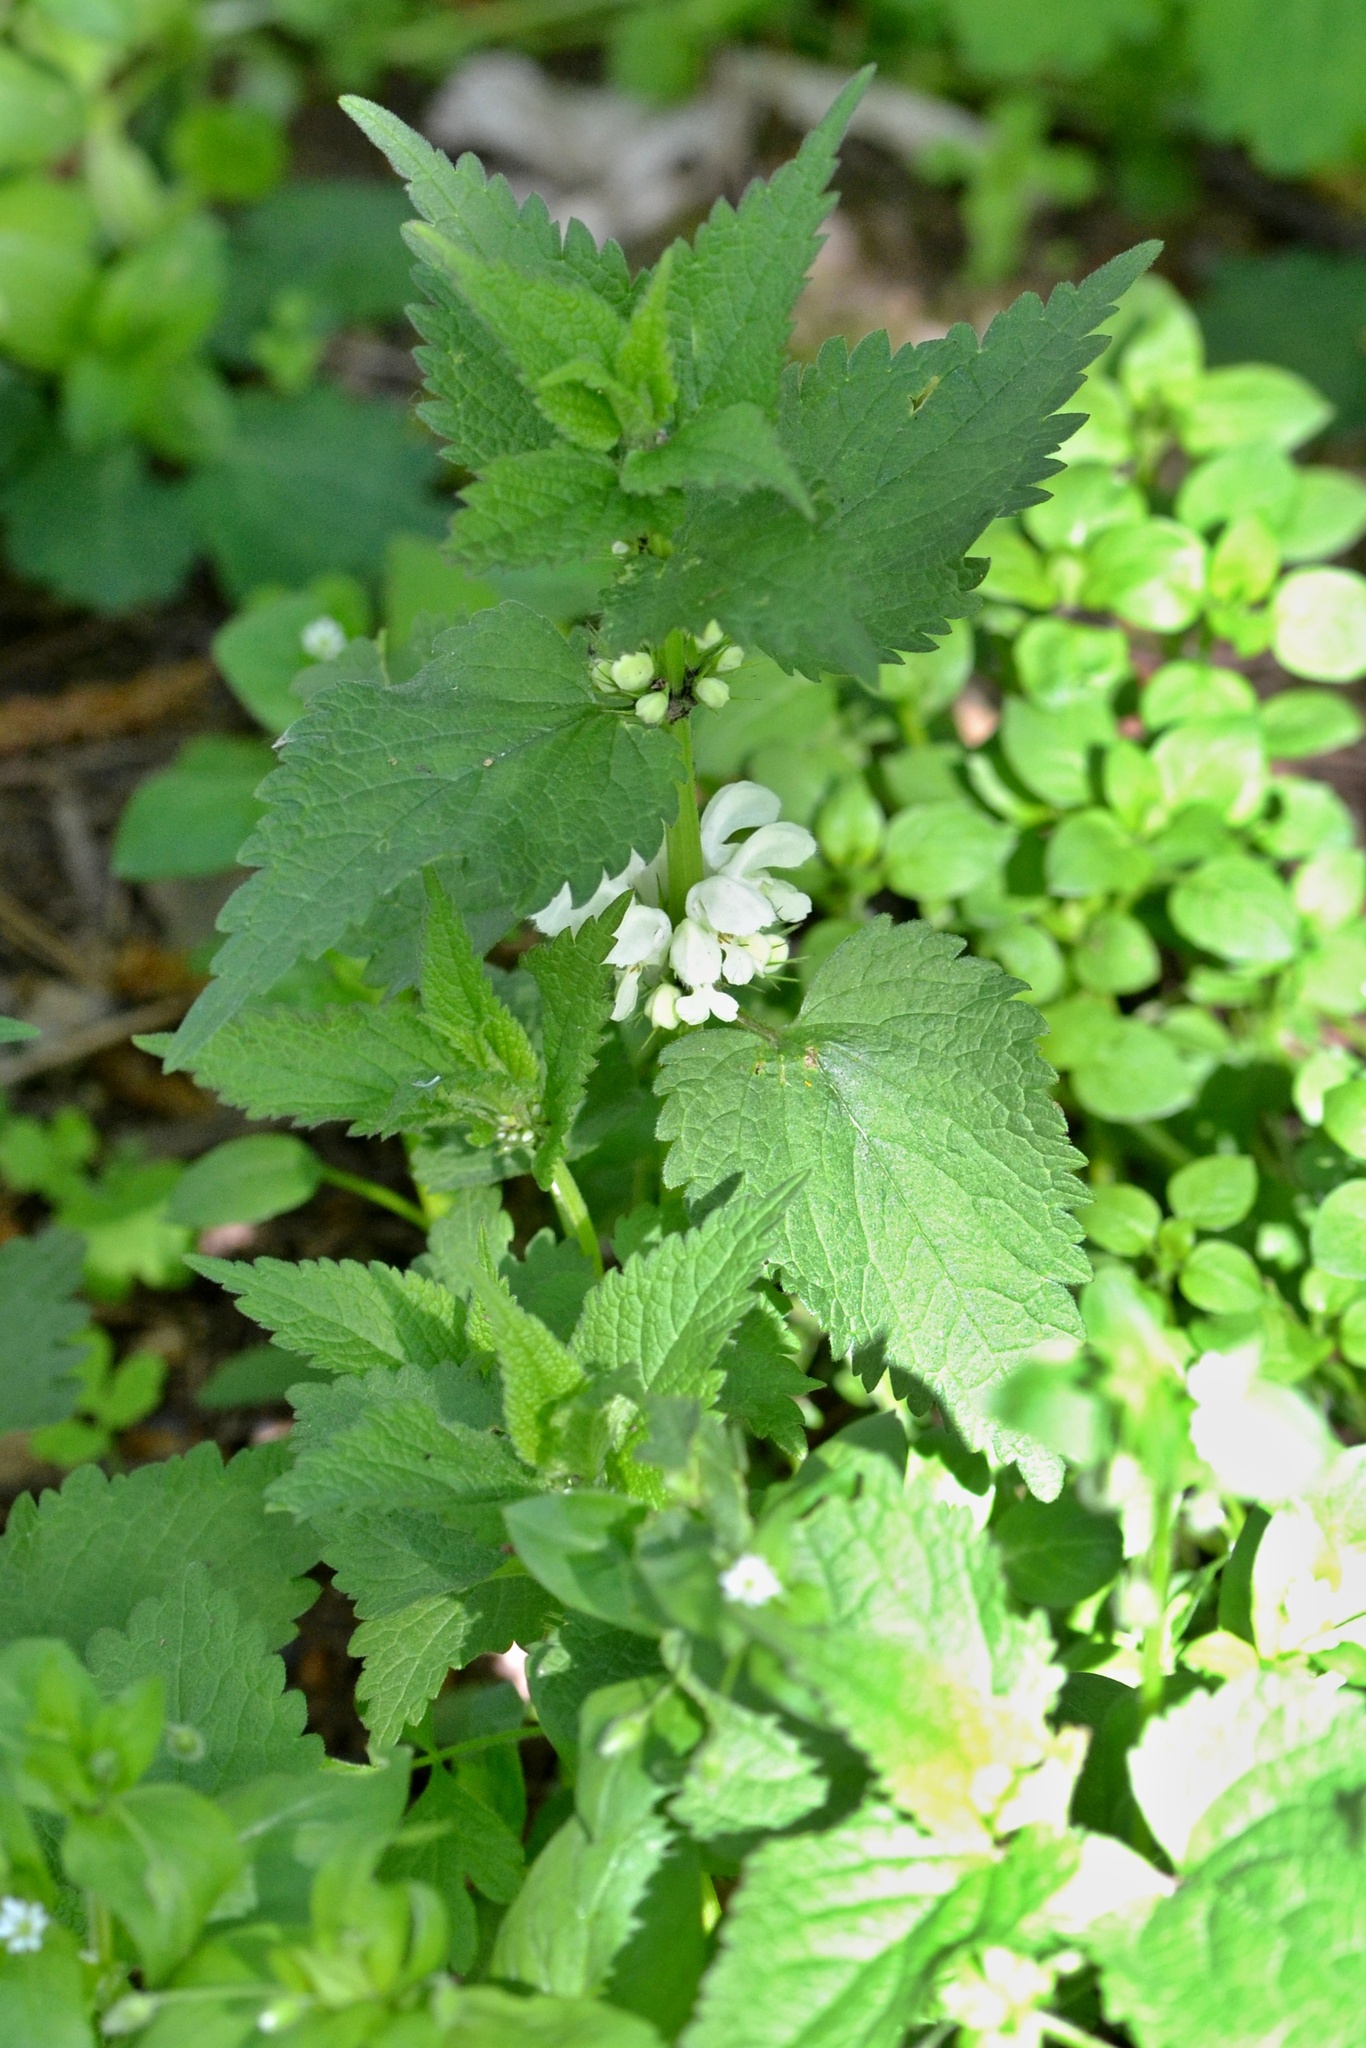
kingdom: Plantae
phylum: Tracheophyta
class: Magnoliopsida
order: Lamiales
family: Lamiaceae
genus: Lamium
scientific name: Lamium album
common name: White dead-nettle
